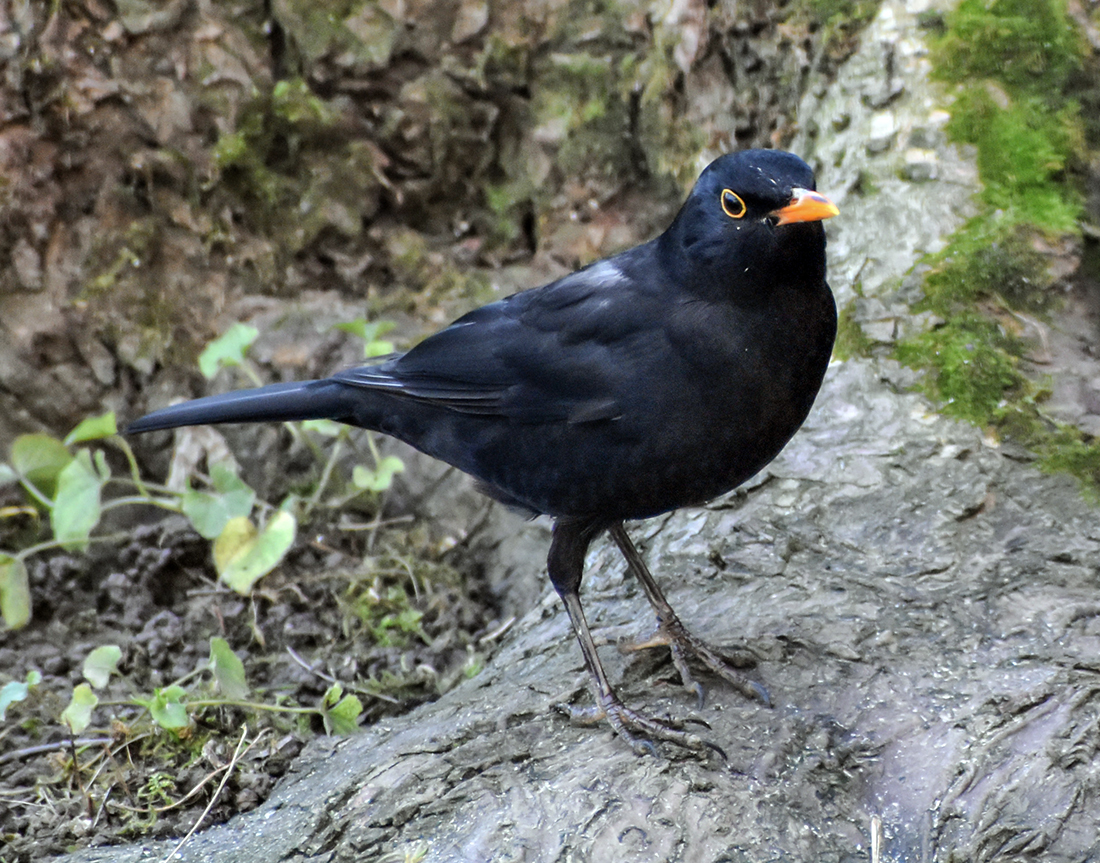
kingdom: Animalia
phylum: Chordata
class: Aves
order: Passeriformes
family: Turdidae
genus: Turdus
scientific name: Turdus merula
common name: Common blackbird
